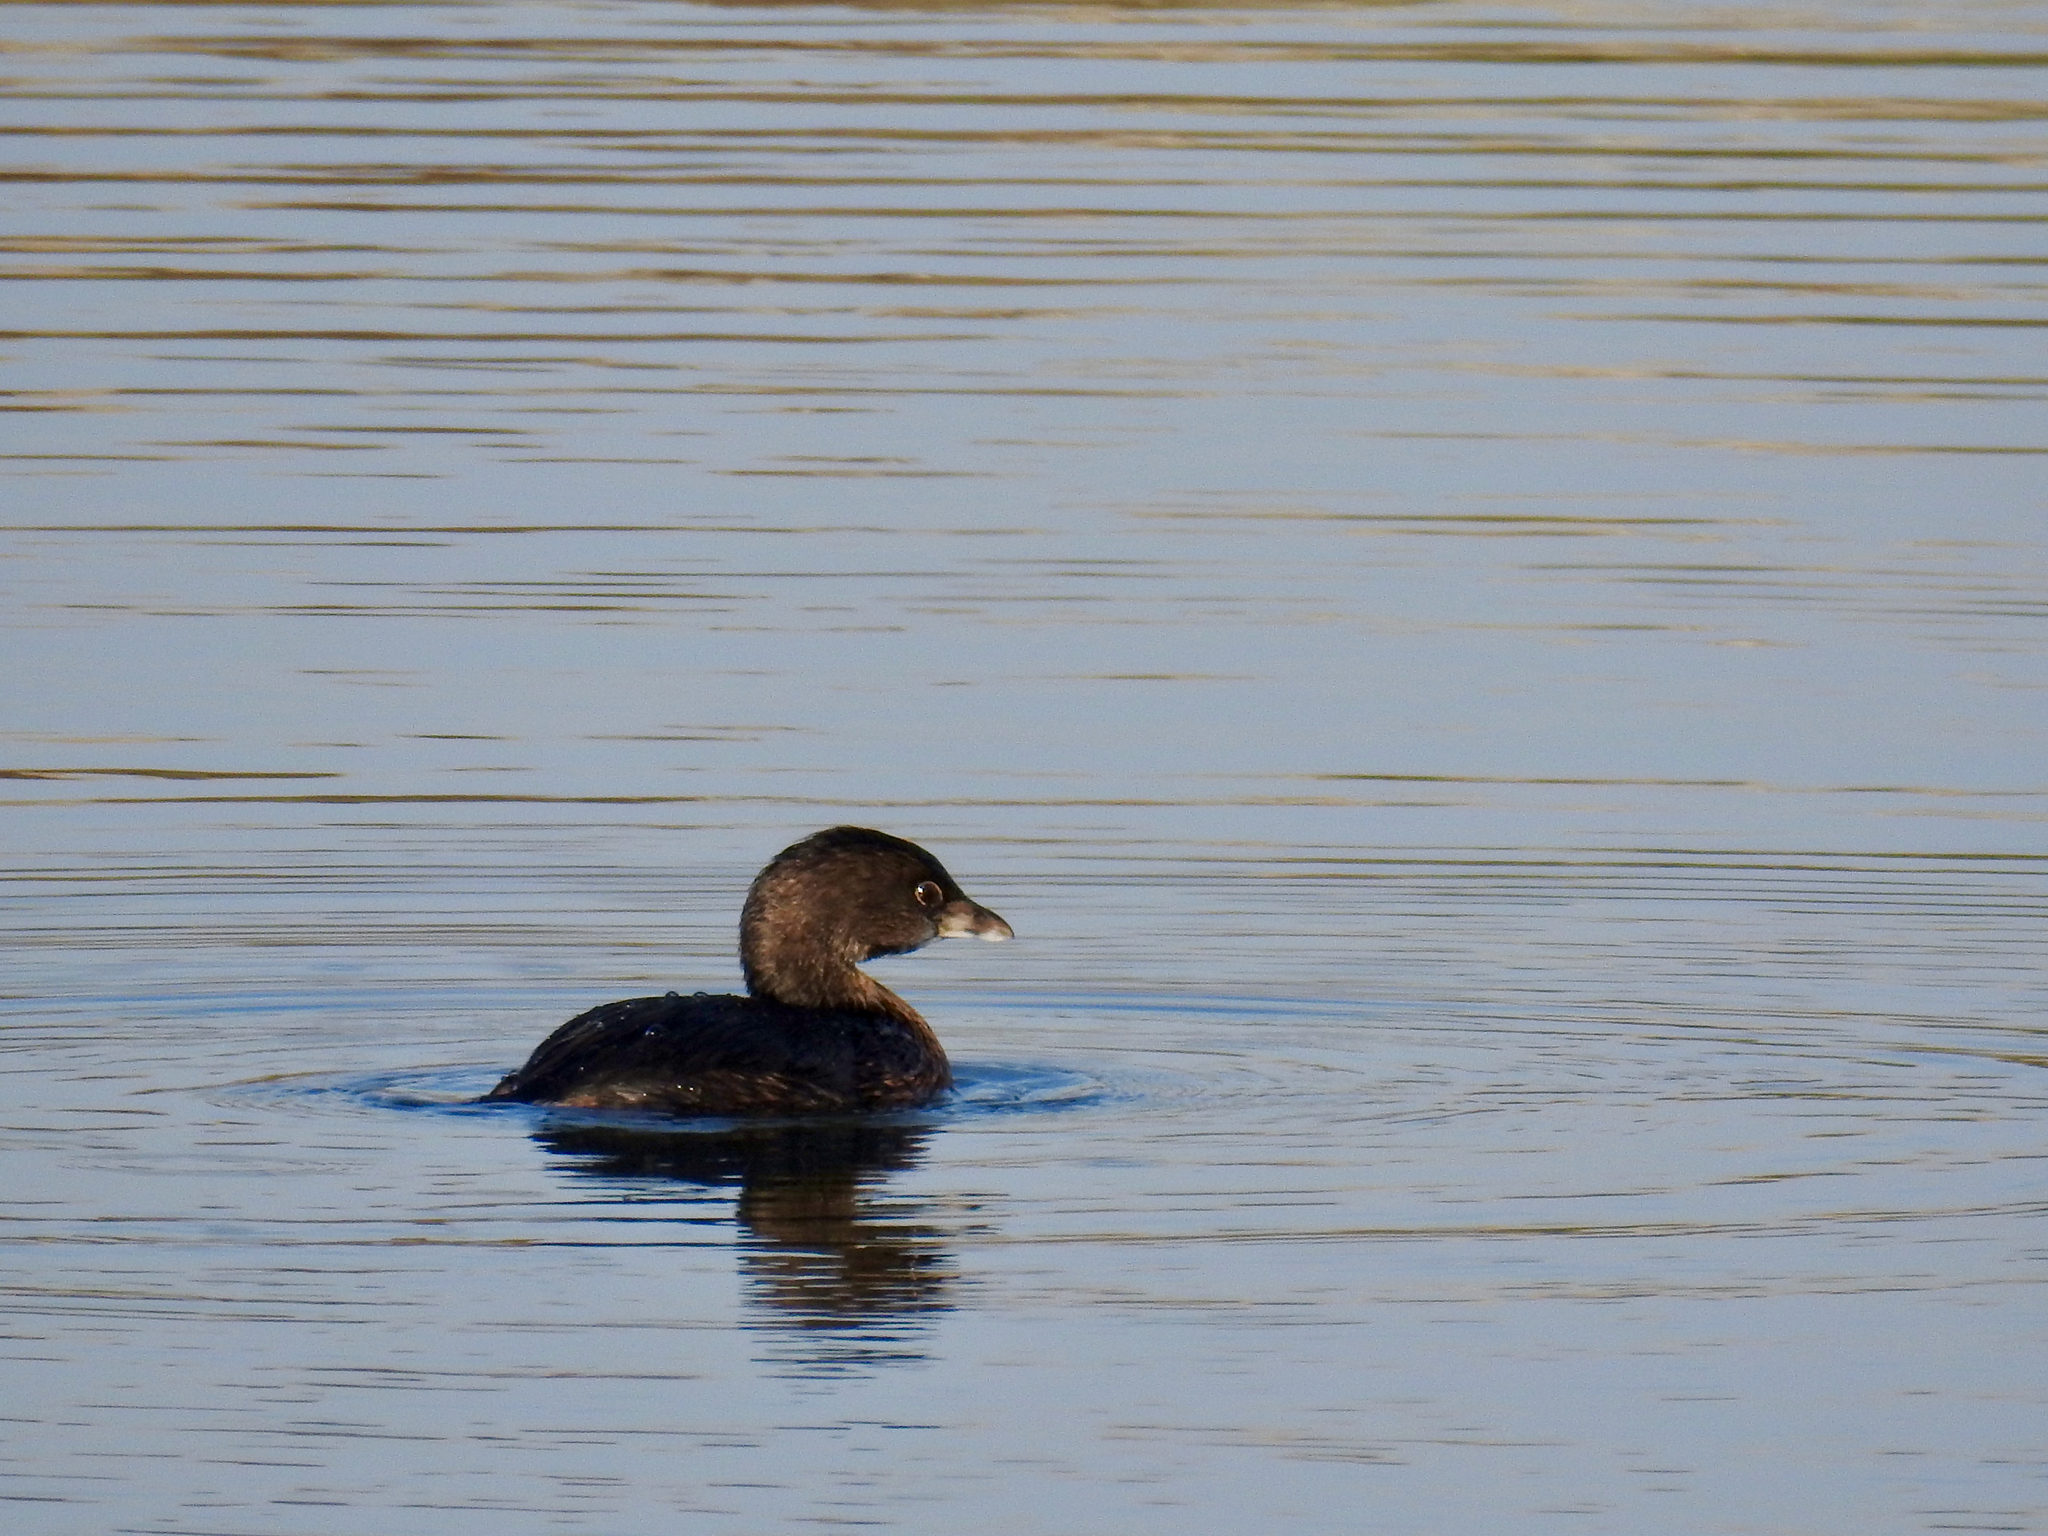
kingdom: Animalia
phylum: Chordata
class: Aves
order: Podicipediformes
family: Podicipedidae
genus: Podilymbus
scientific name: Podilymbus podiceps
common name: Pied-billed grebe
